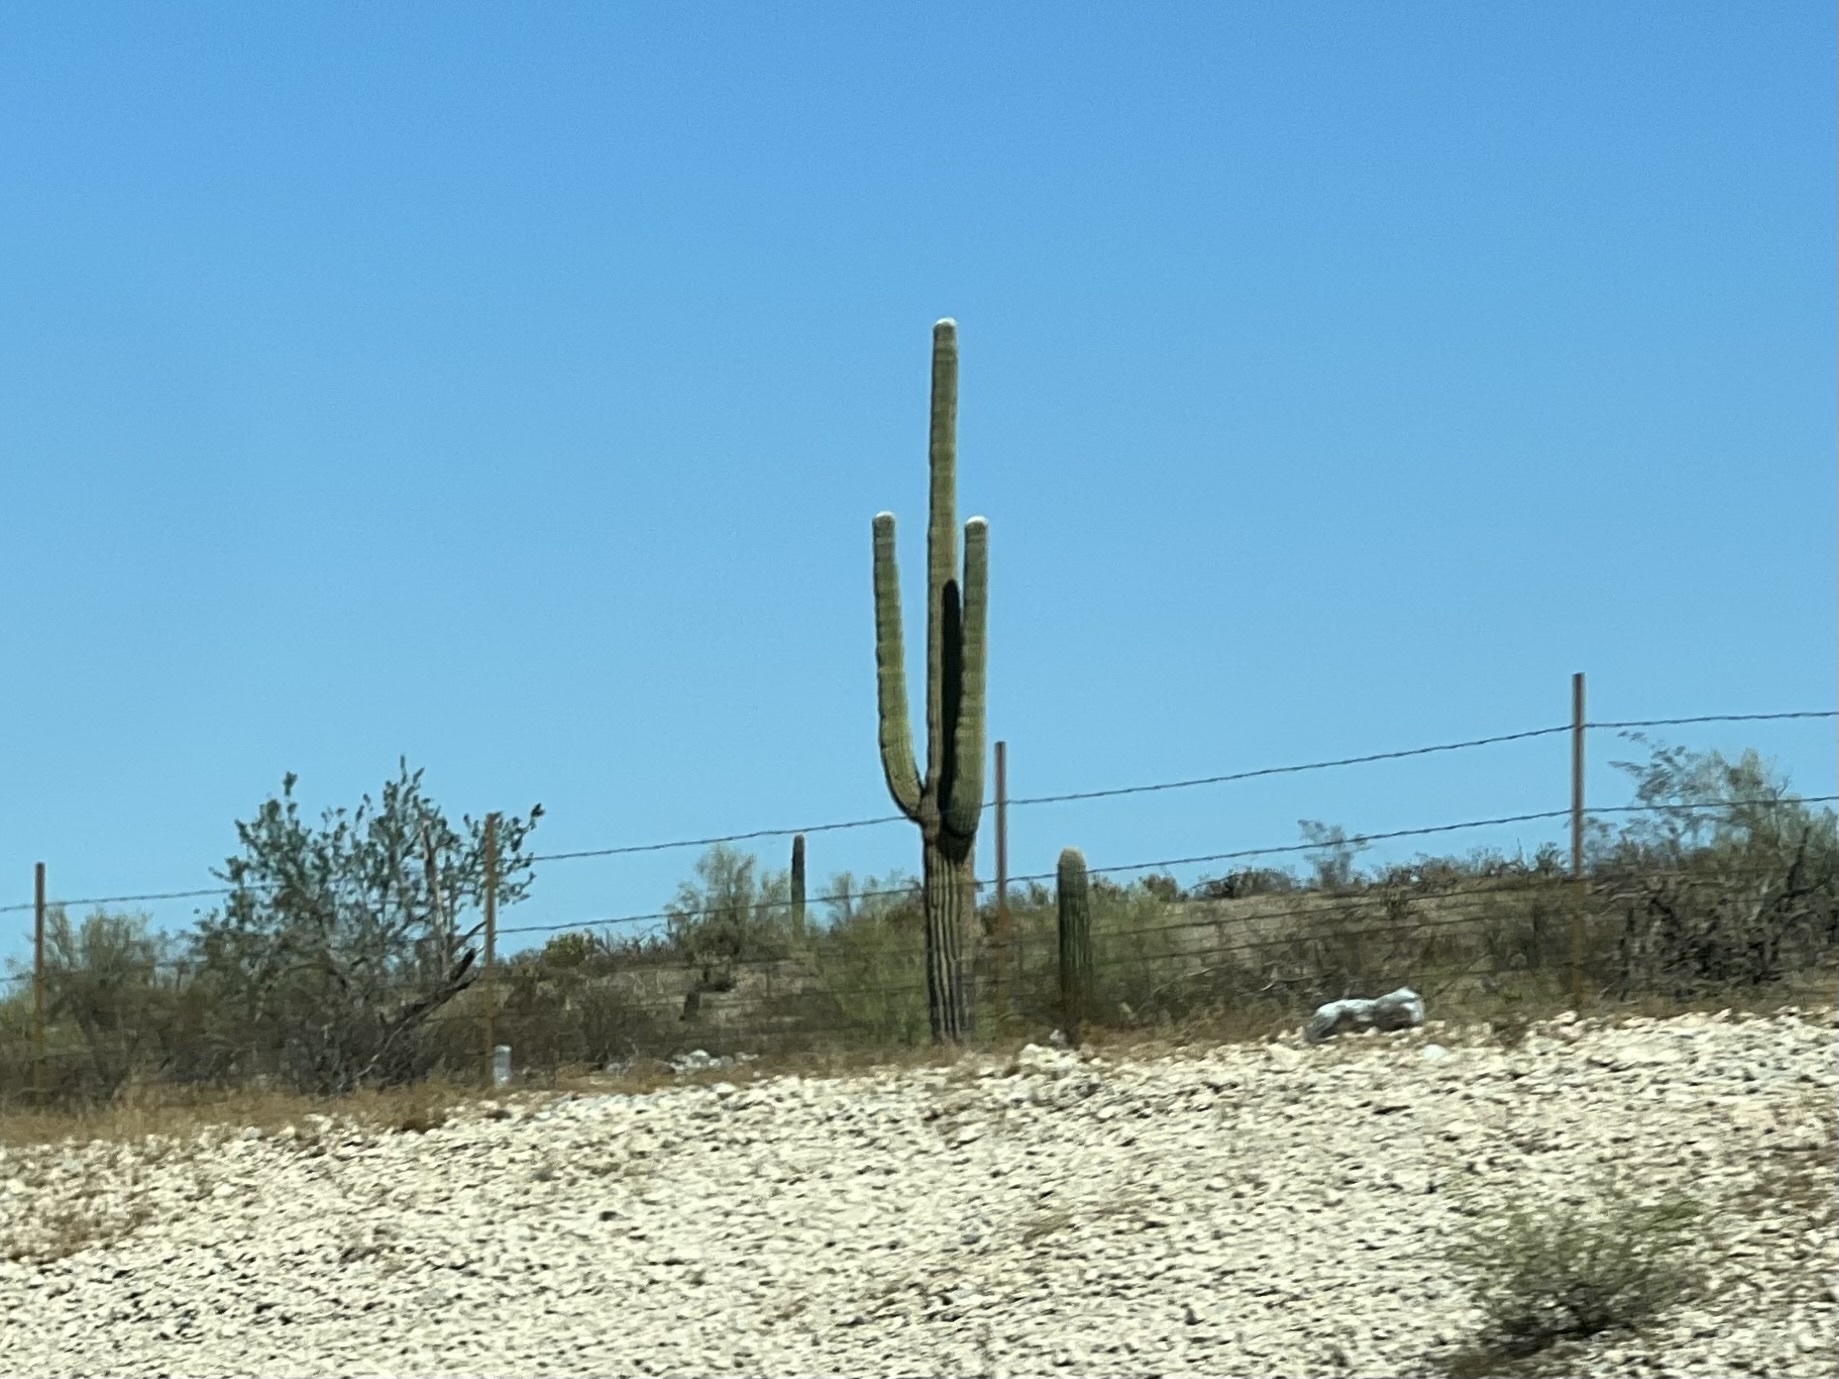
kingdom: Plantae
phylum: Tracheophyta
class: Magnoliopsida
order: Caryophyllales
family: Cactaceae
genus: Carnegiea
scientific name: Carnegiea gigantea
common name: Saguaro
